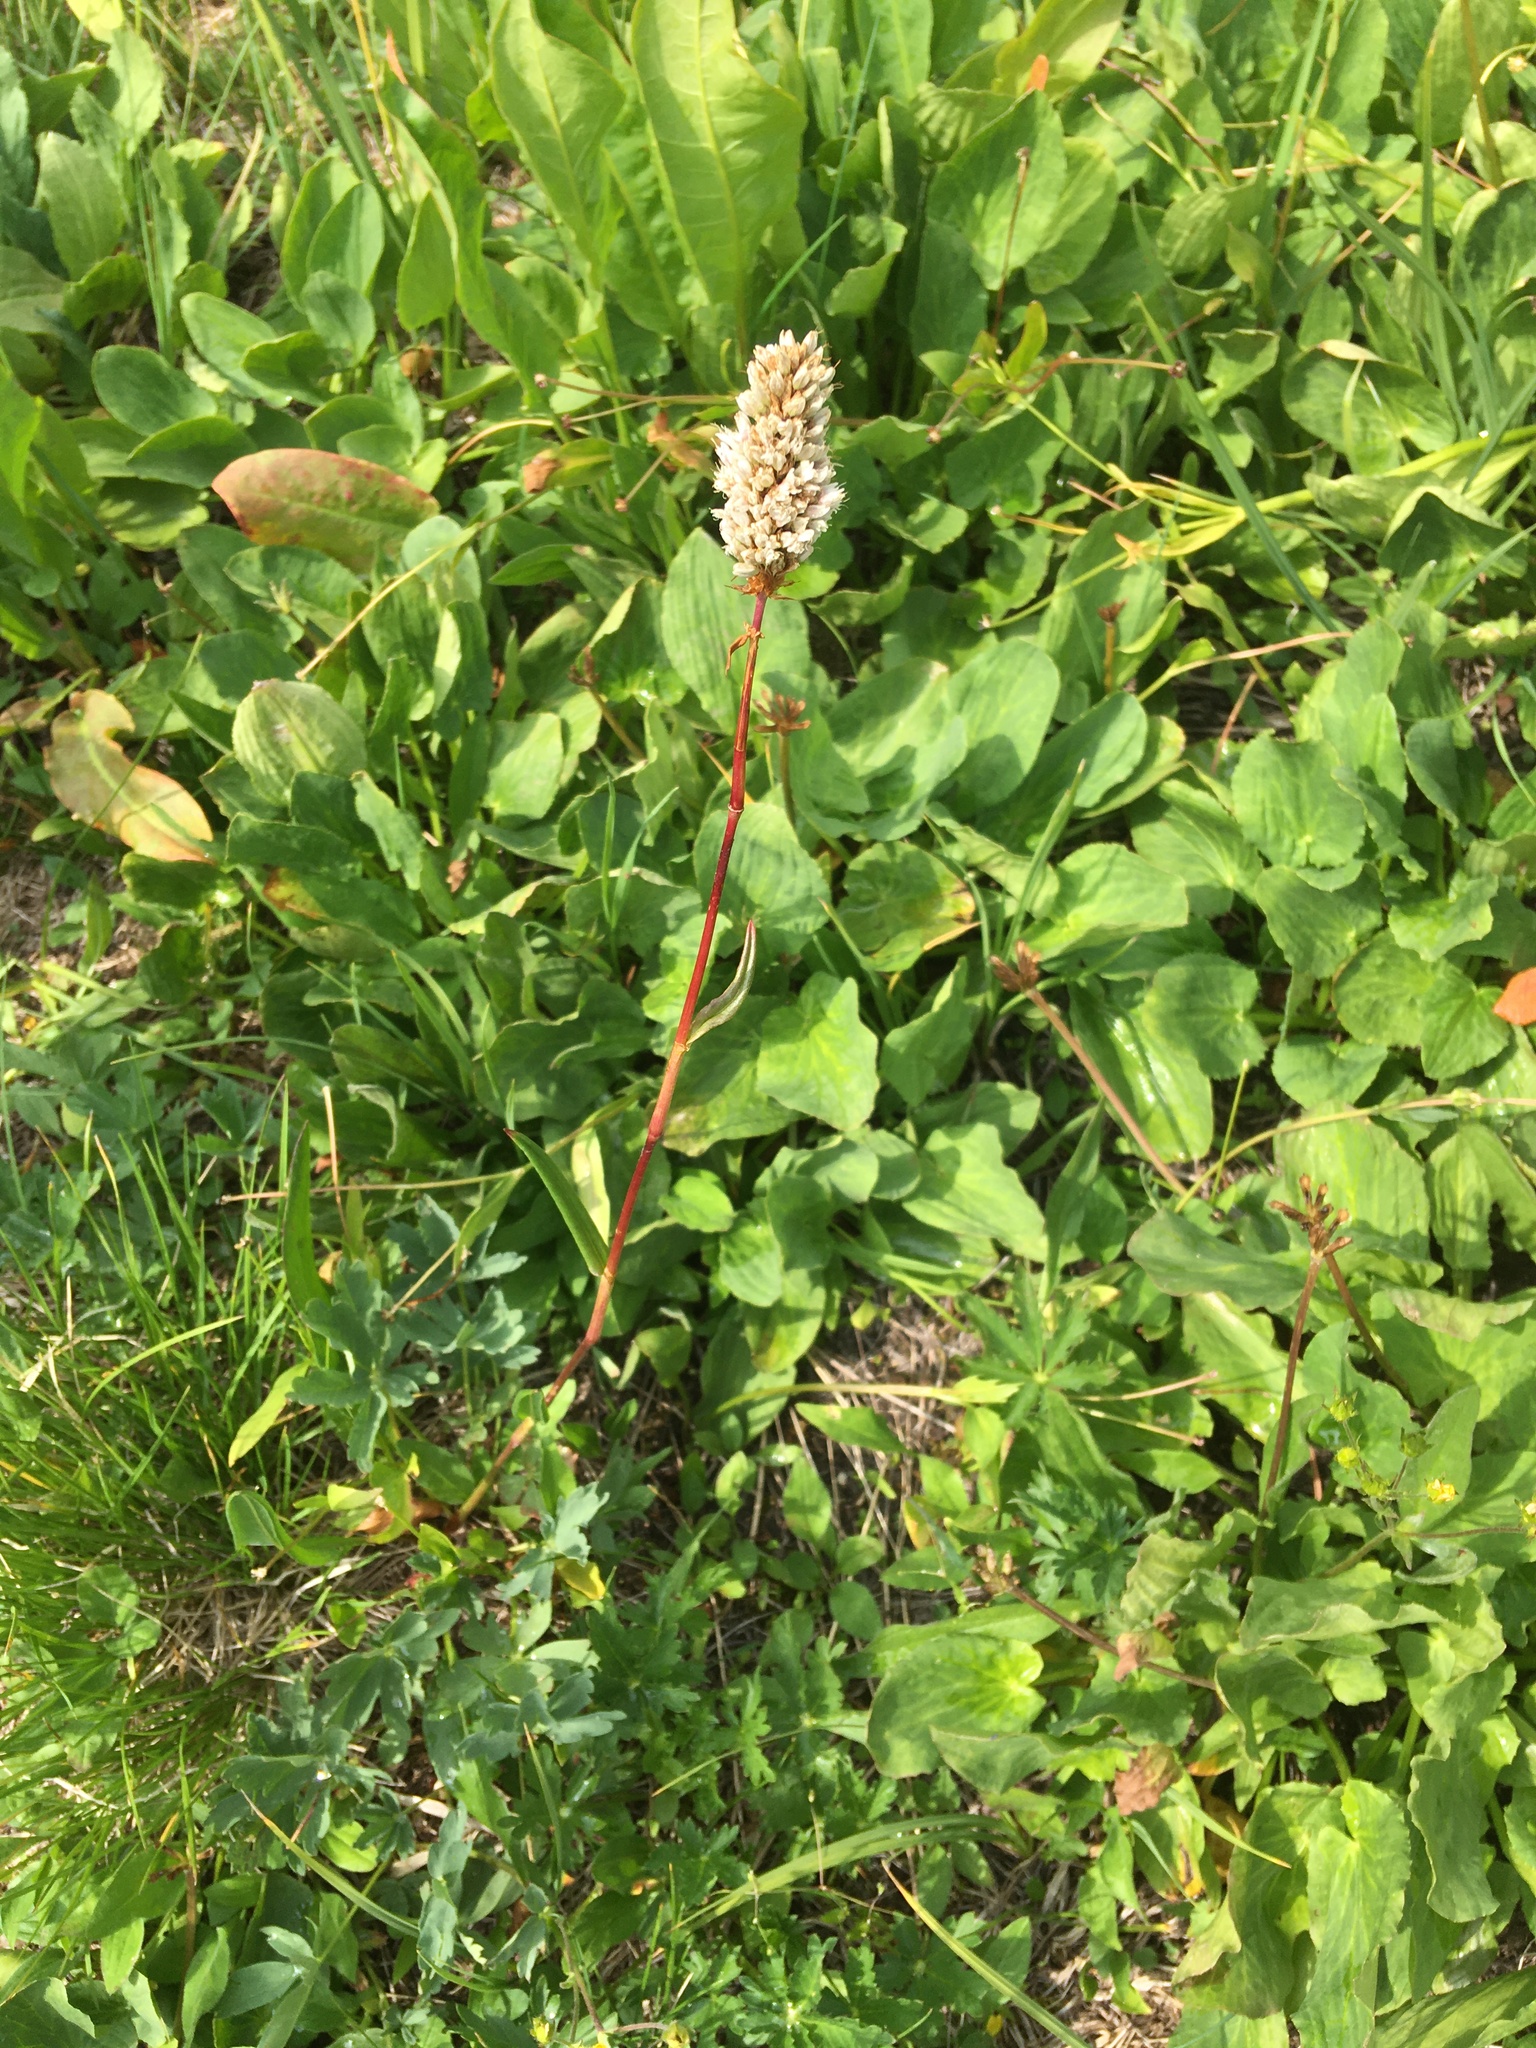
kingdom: Plantae
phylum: Tracheophyta
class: Magnoliopsida
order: Caryophyllales
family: Polygonaceae
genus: Bistorta
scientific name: Bistorta bistortoides
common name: American bistort
